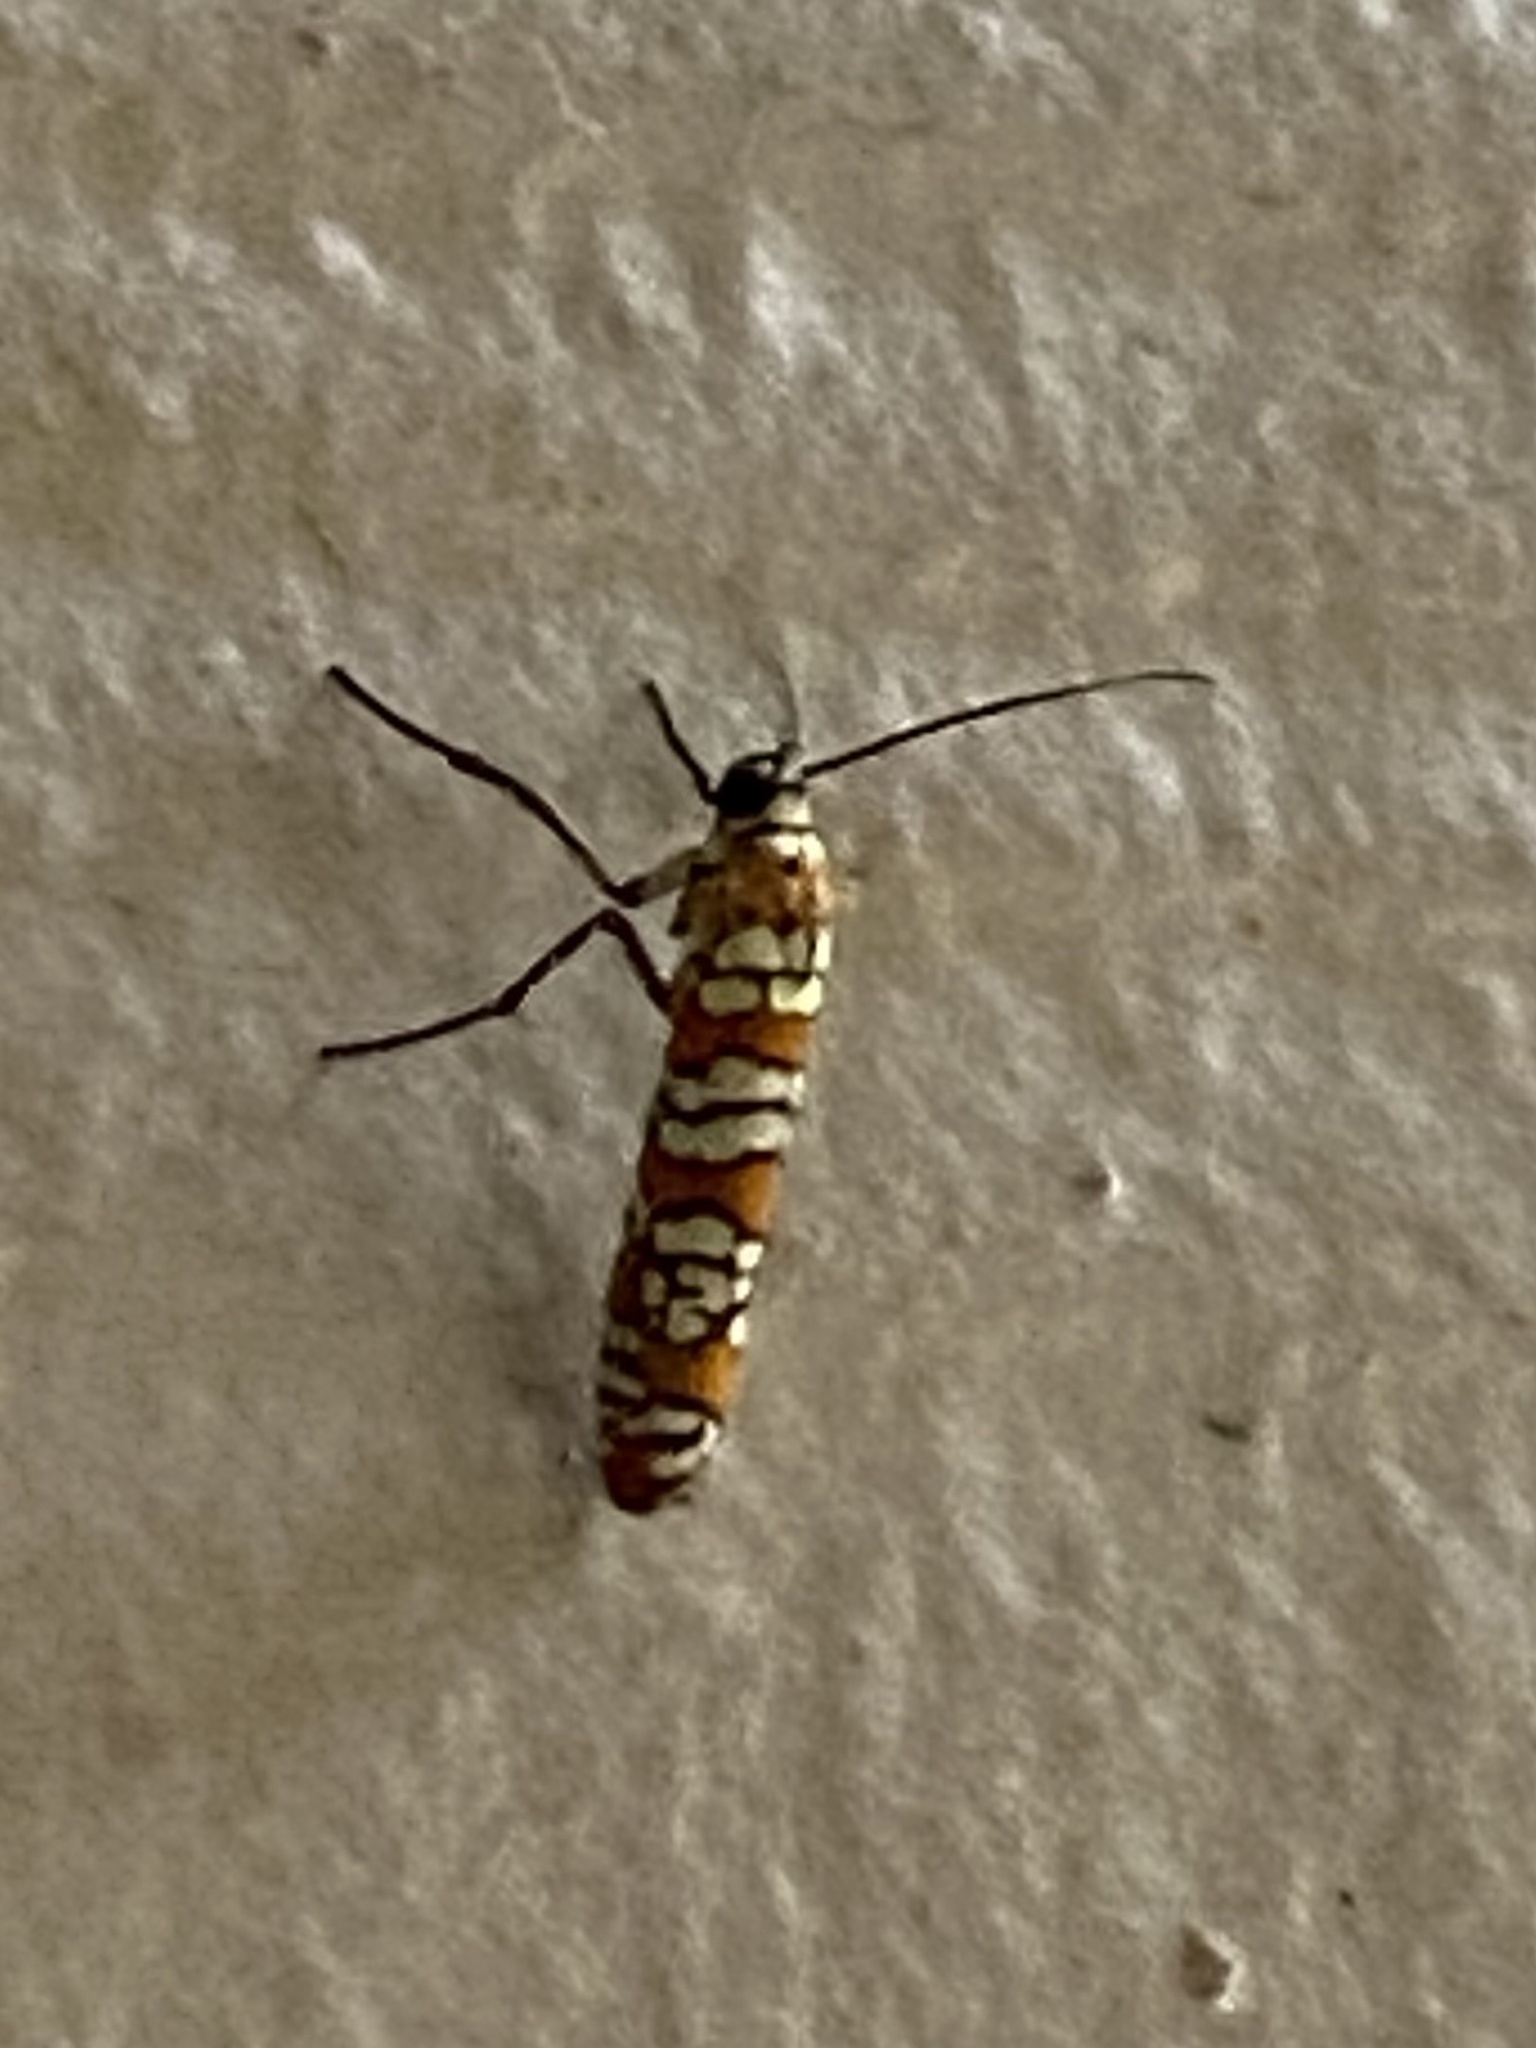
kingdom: Animalia
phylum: Arthropoda
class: Insecta
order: Lepidoptera
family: Attevidae
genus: Atteva
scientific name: Atteva punctella
